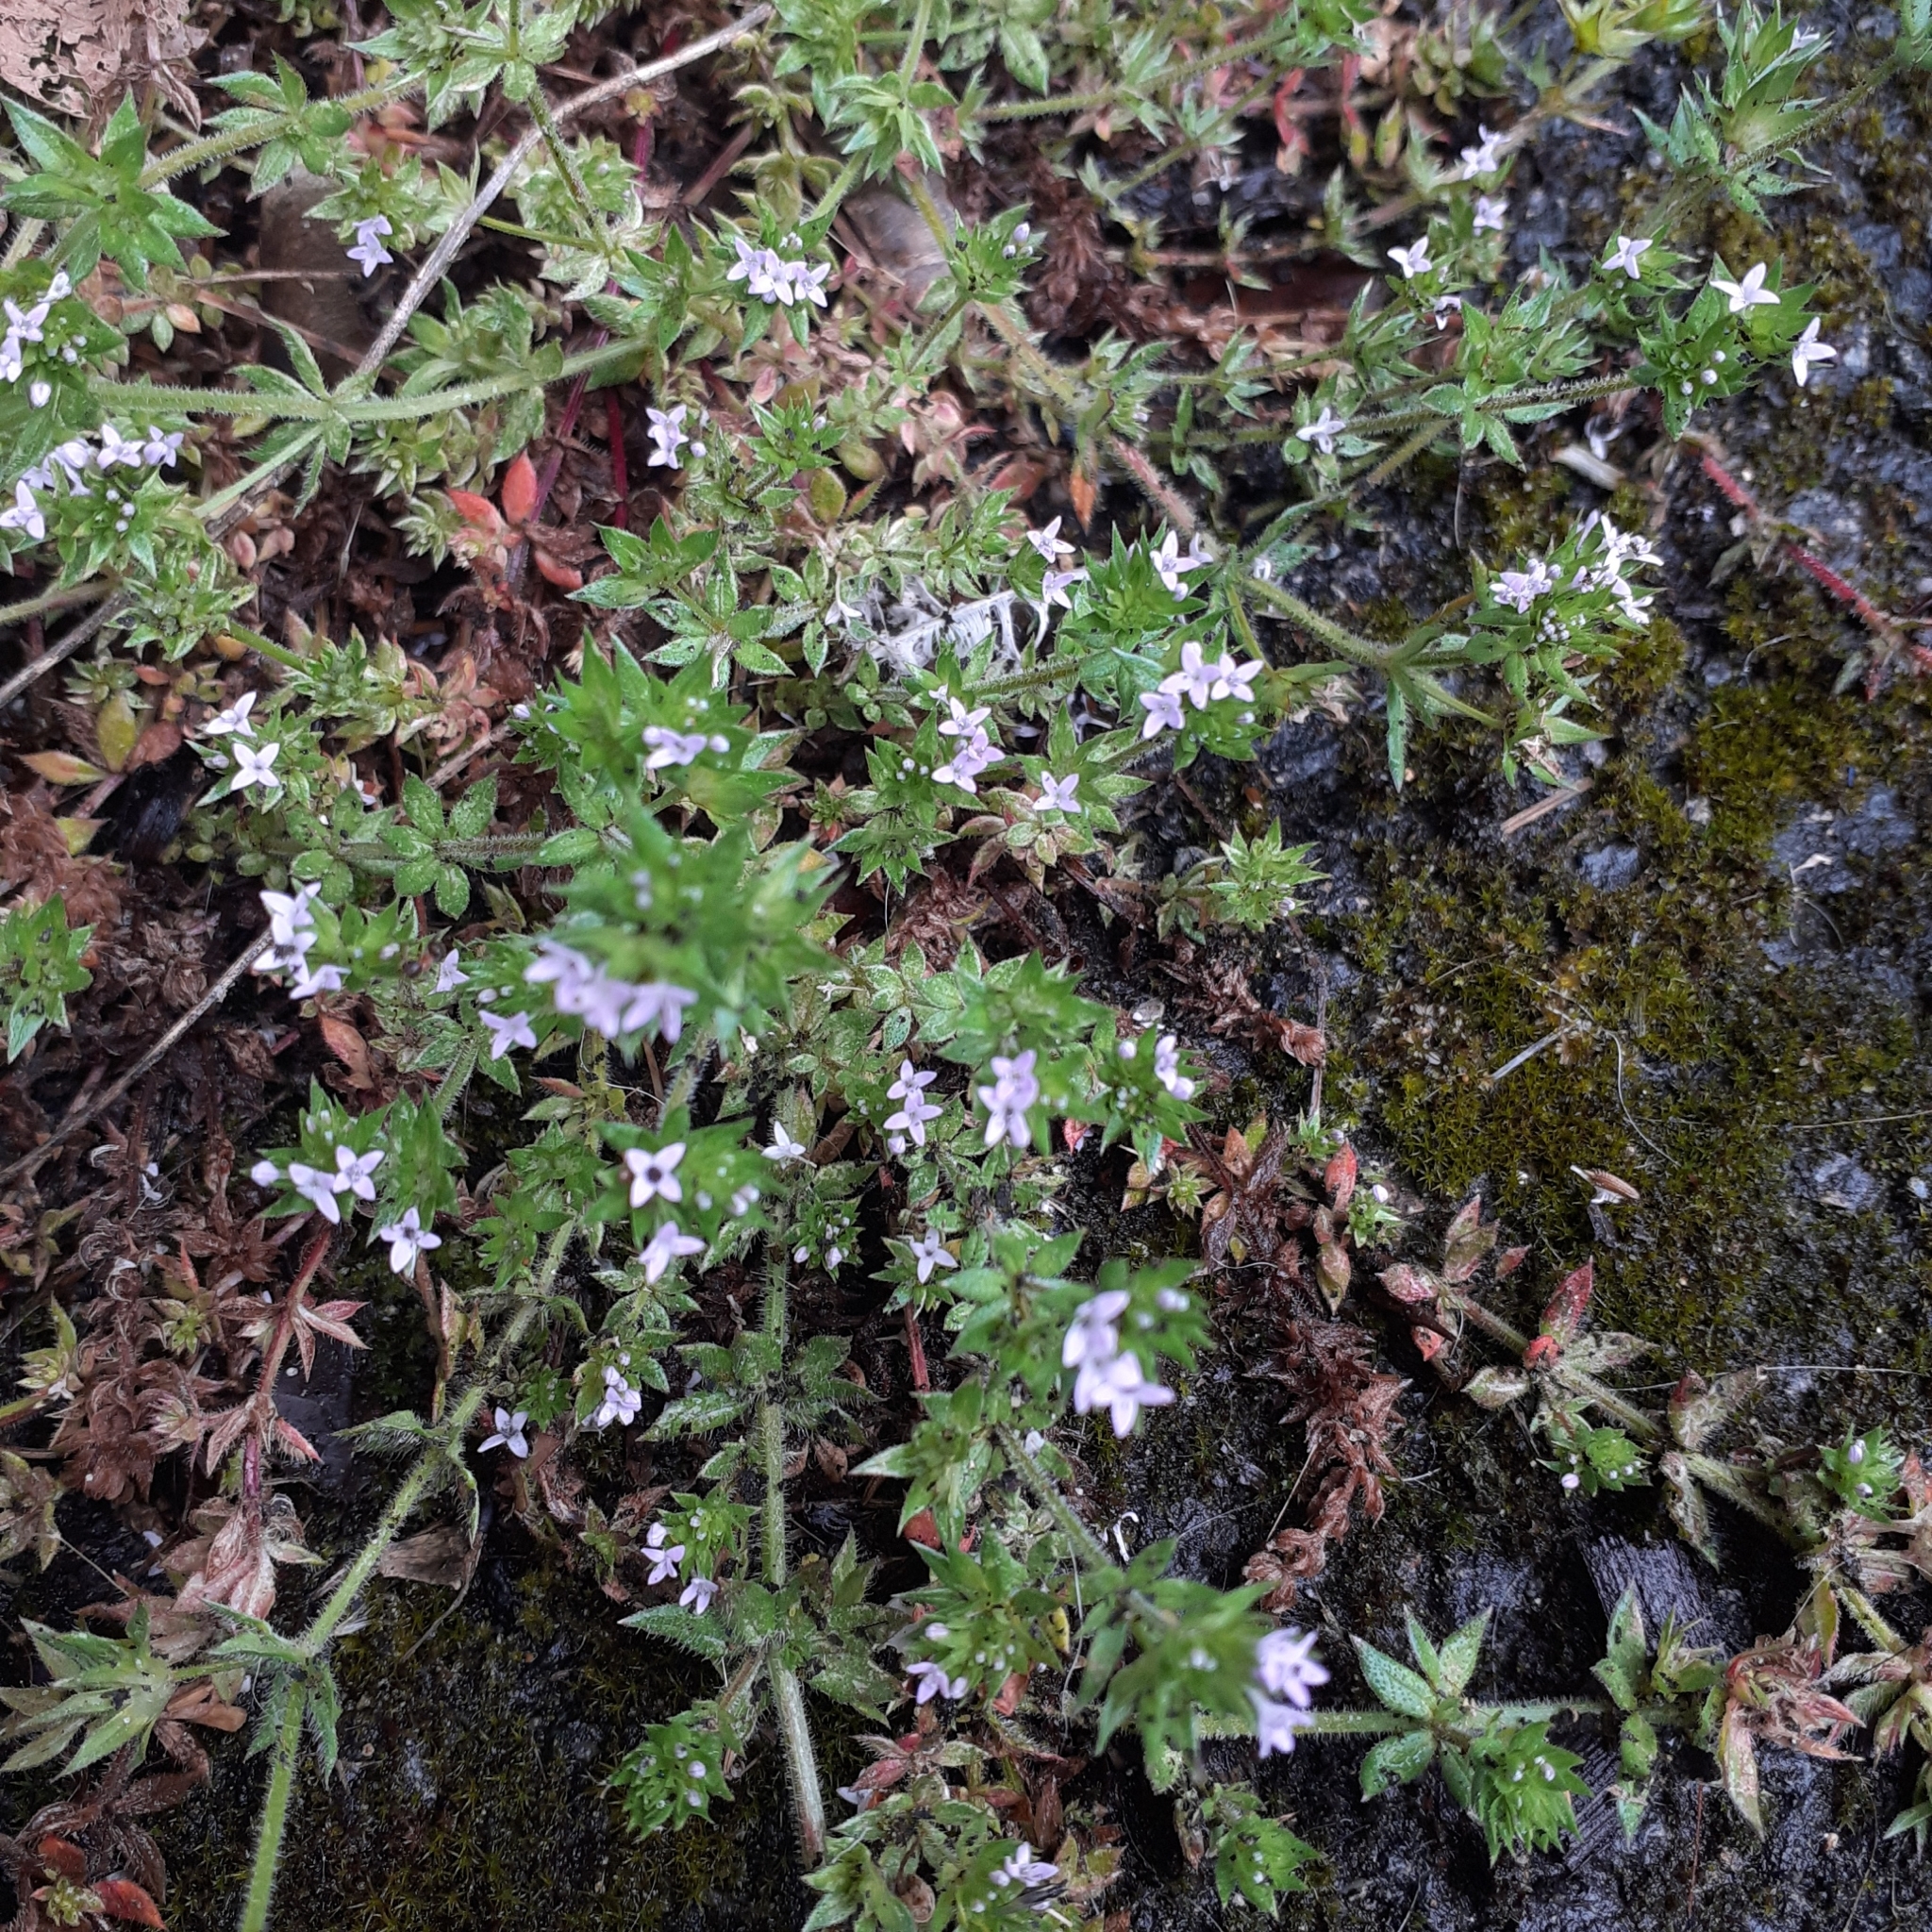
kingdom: Plantae
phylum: Tracheophyta
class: Magnoliopsida
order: Gentianales
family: Rubiaceae
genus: Sherardia
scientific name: Sherardia arvensis
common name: Field madder
